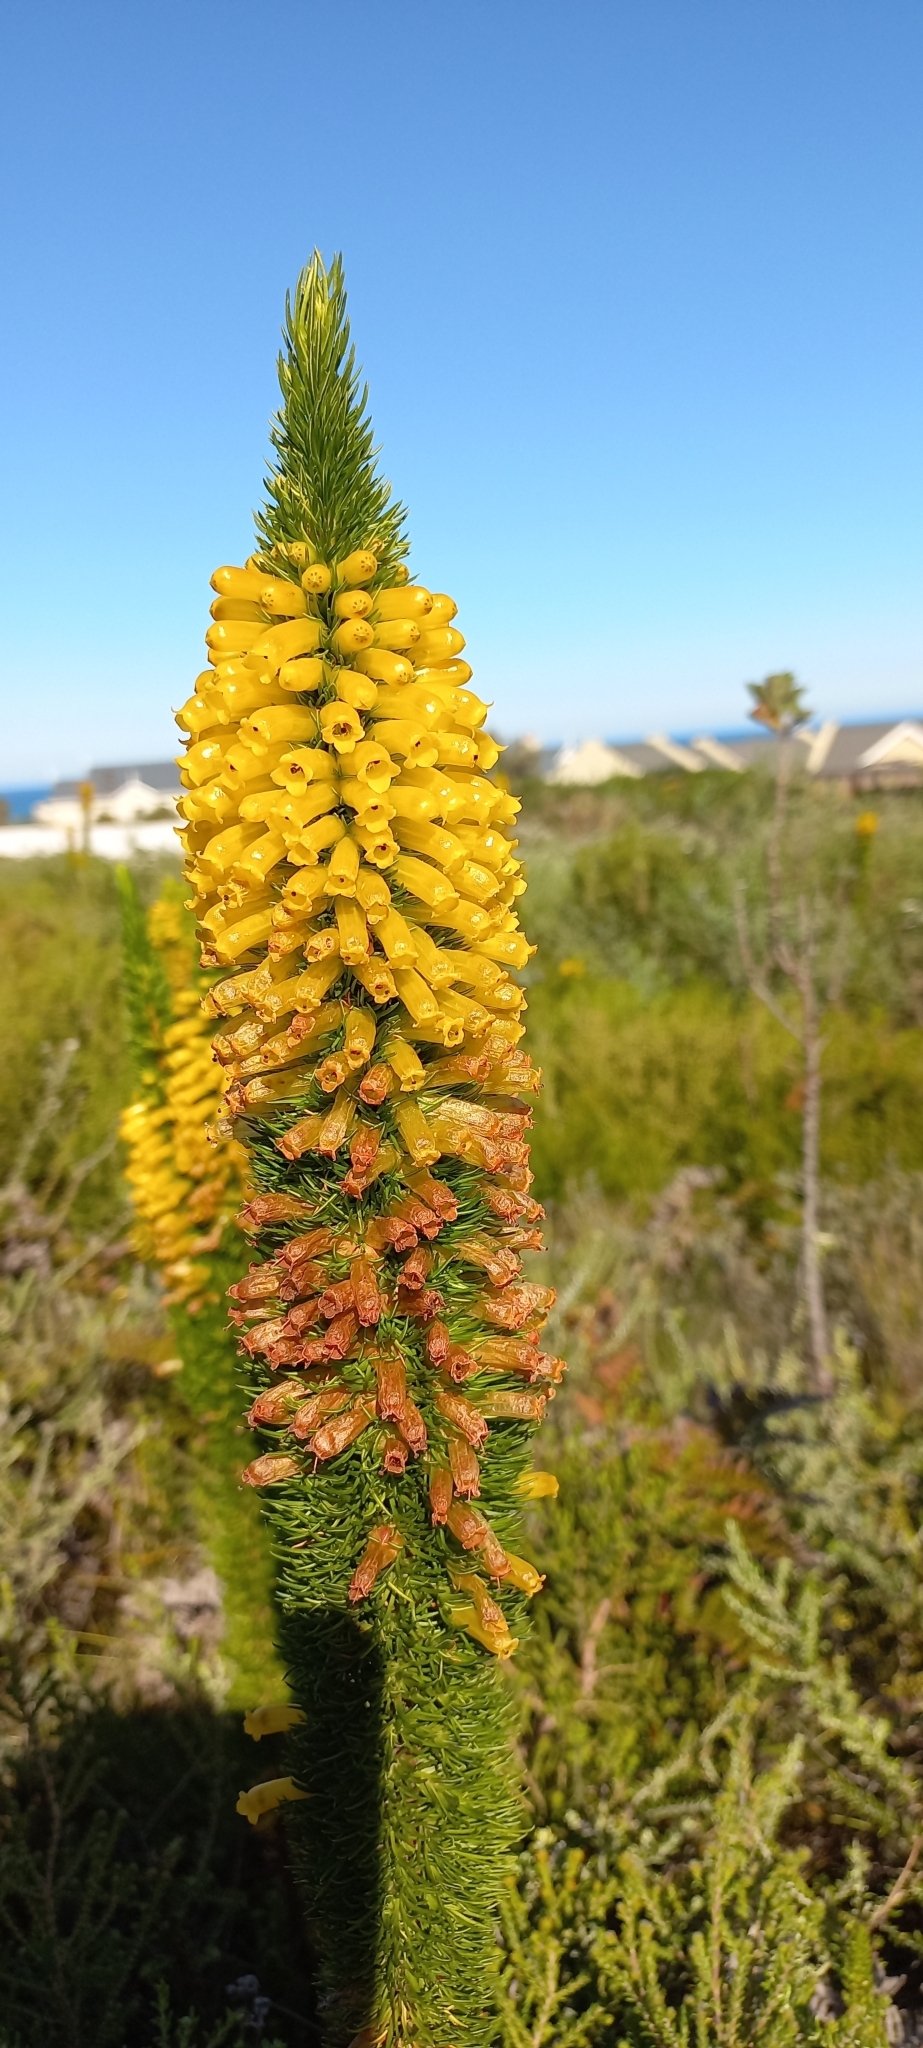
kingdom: Plantae
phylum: Tracheophyta
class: Magnoliopsida
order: Ericales
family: Ericaceae
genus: Erica
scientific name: Erica patersonia
